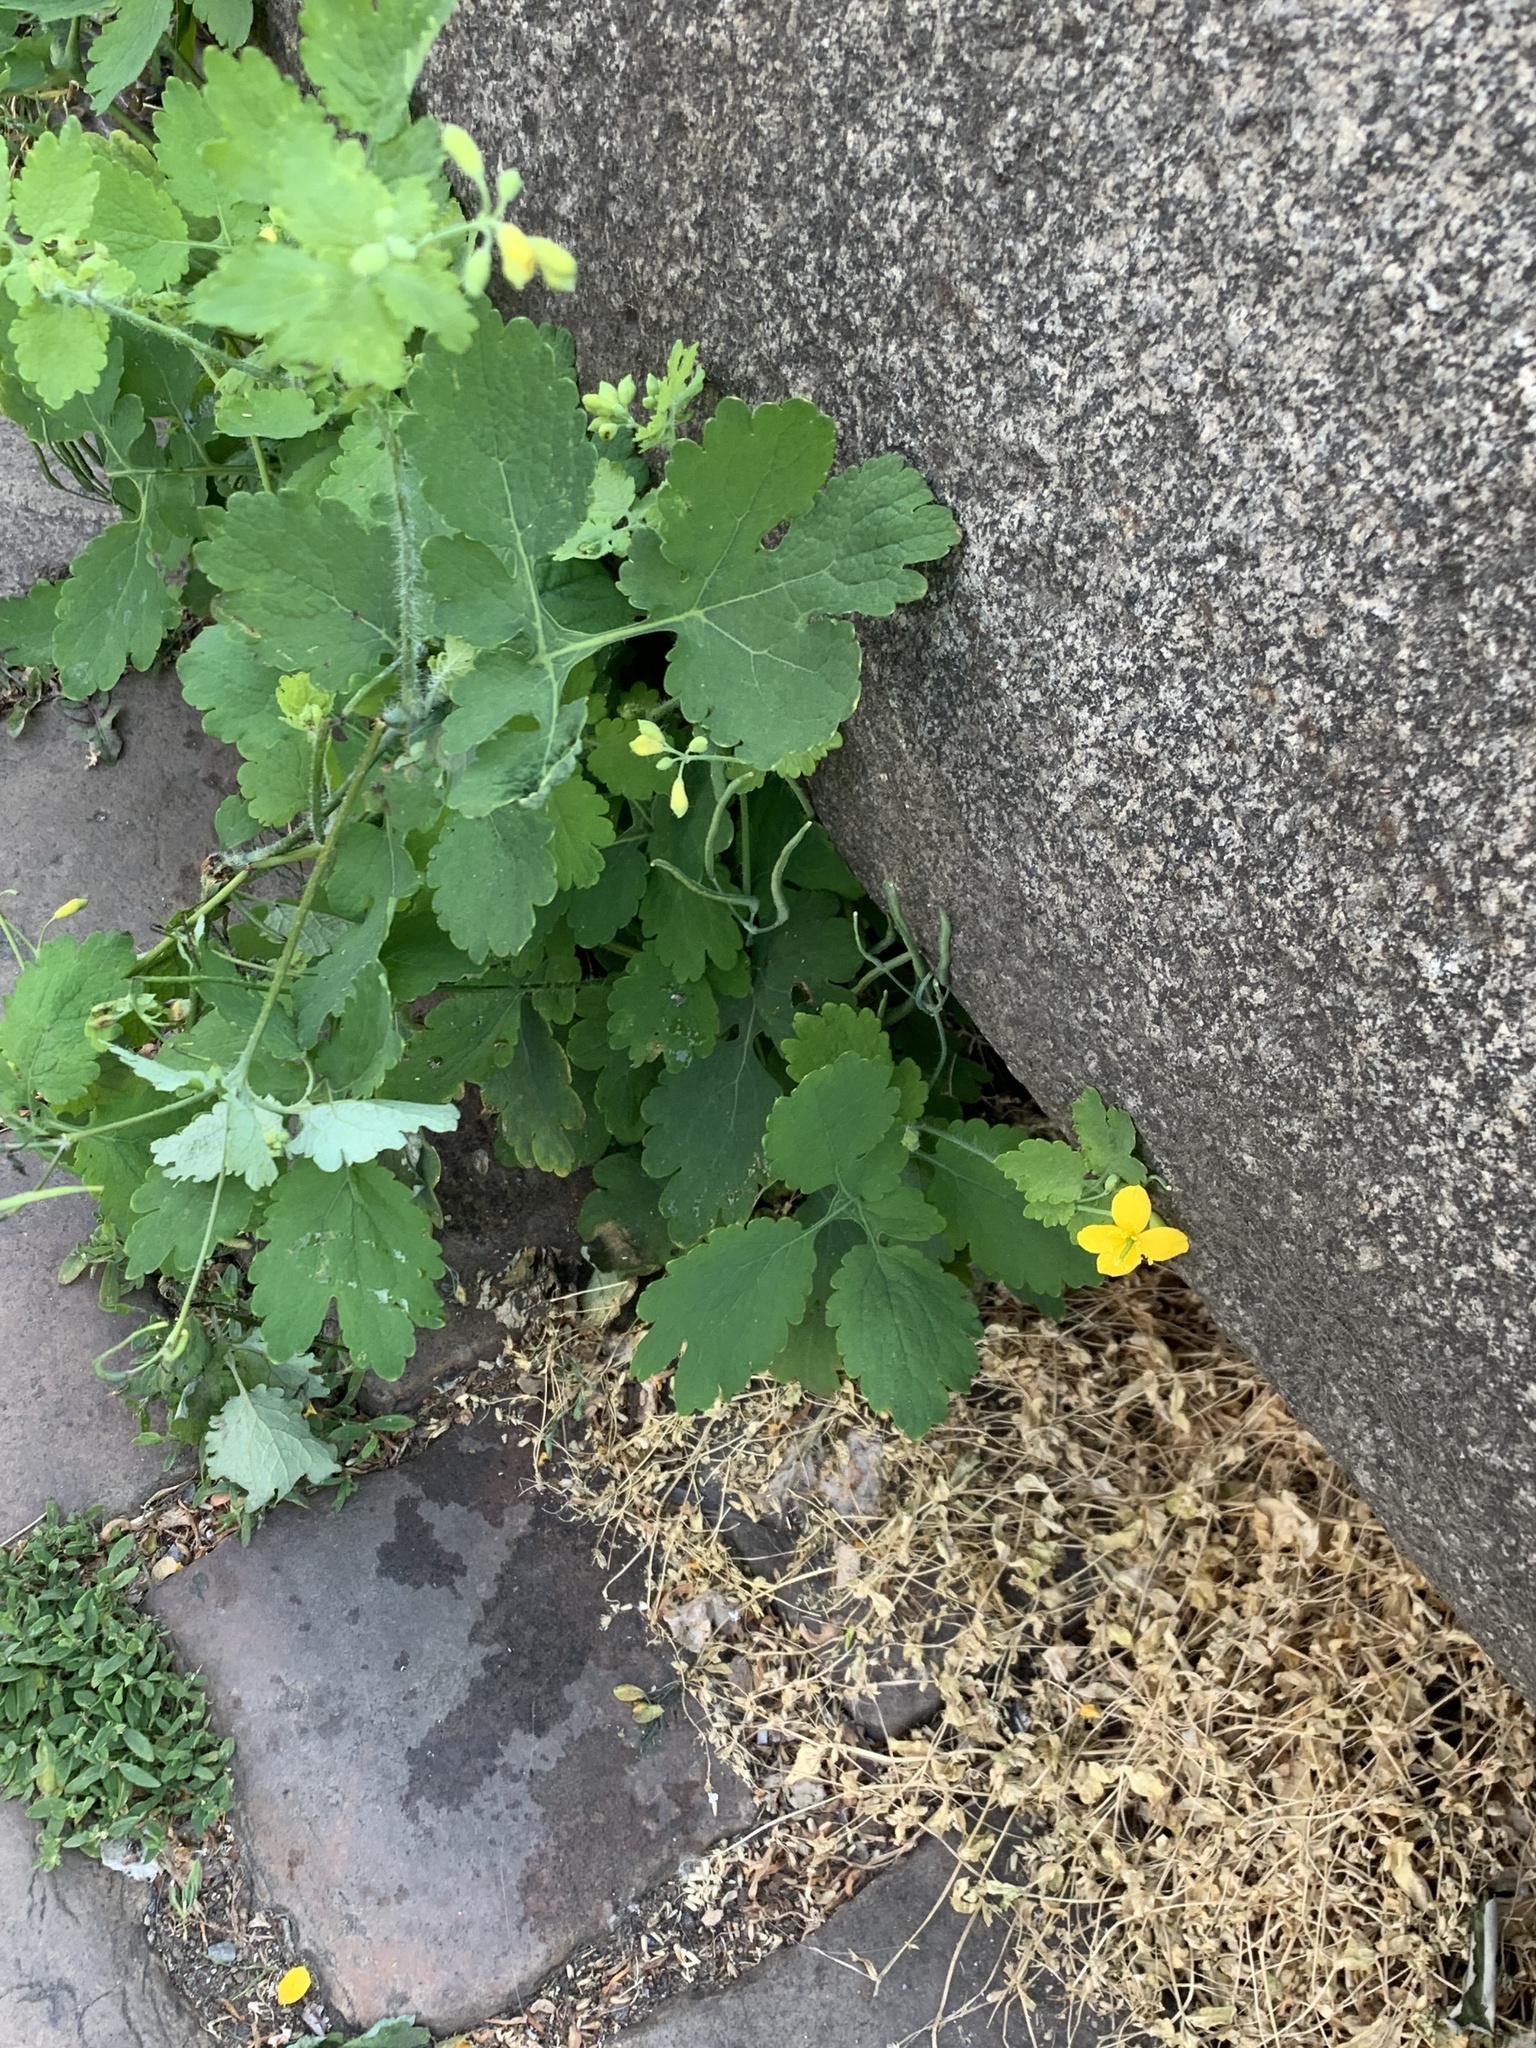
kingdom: Plantae
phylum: Tracheophyta
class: Magnoliopsida
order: Ranunculales
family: Papaveraceae
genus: Chelidonium
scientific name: Chelidonium majus
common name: Greater celandine
